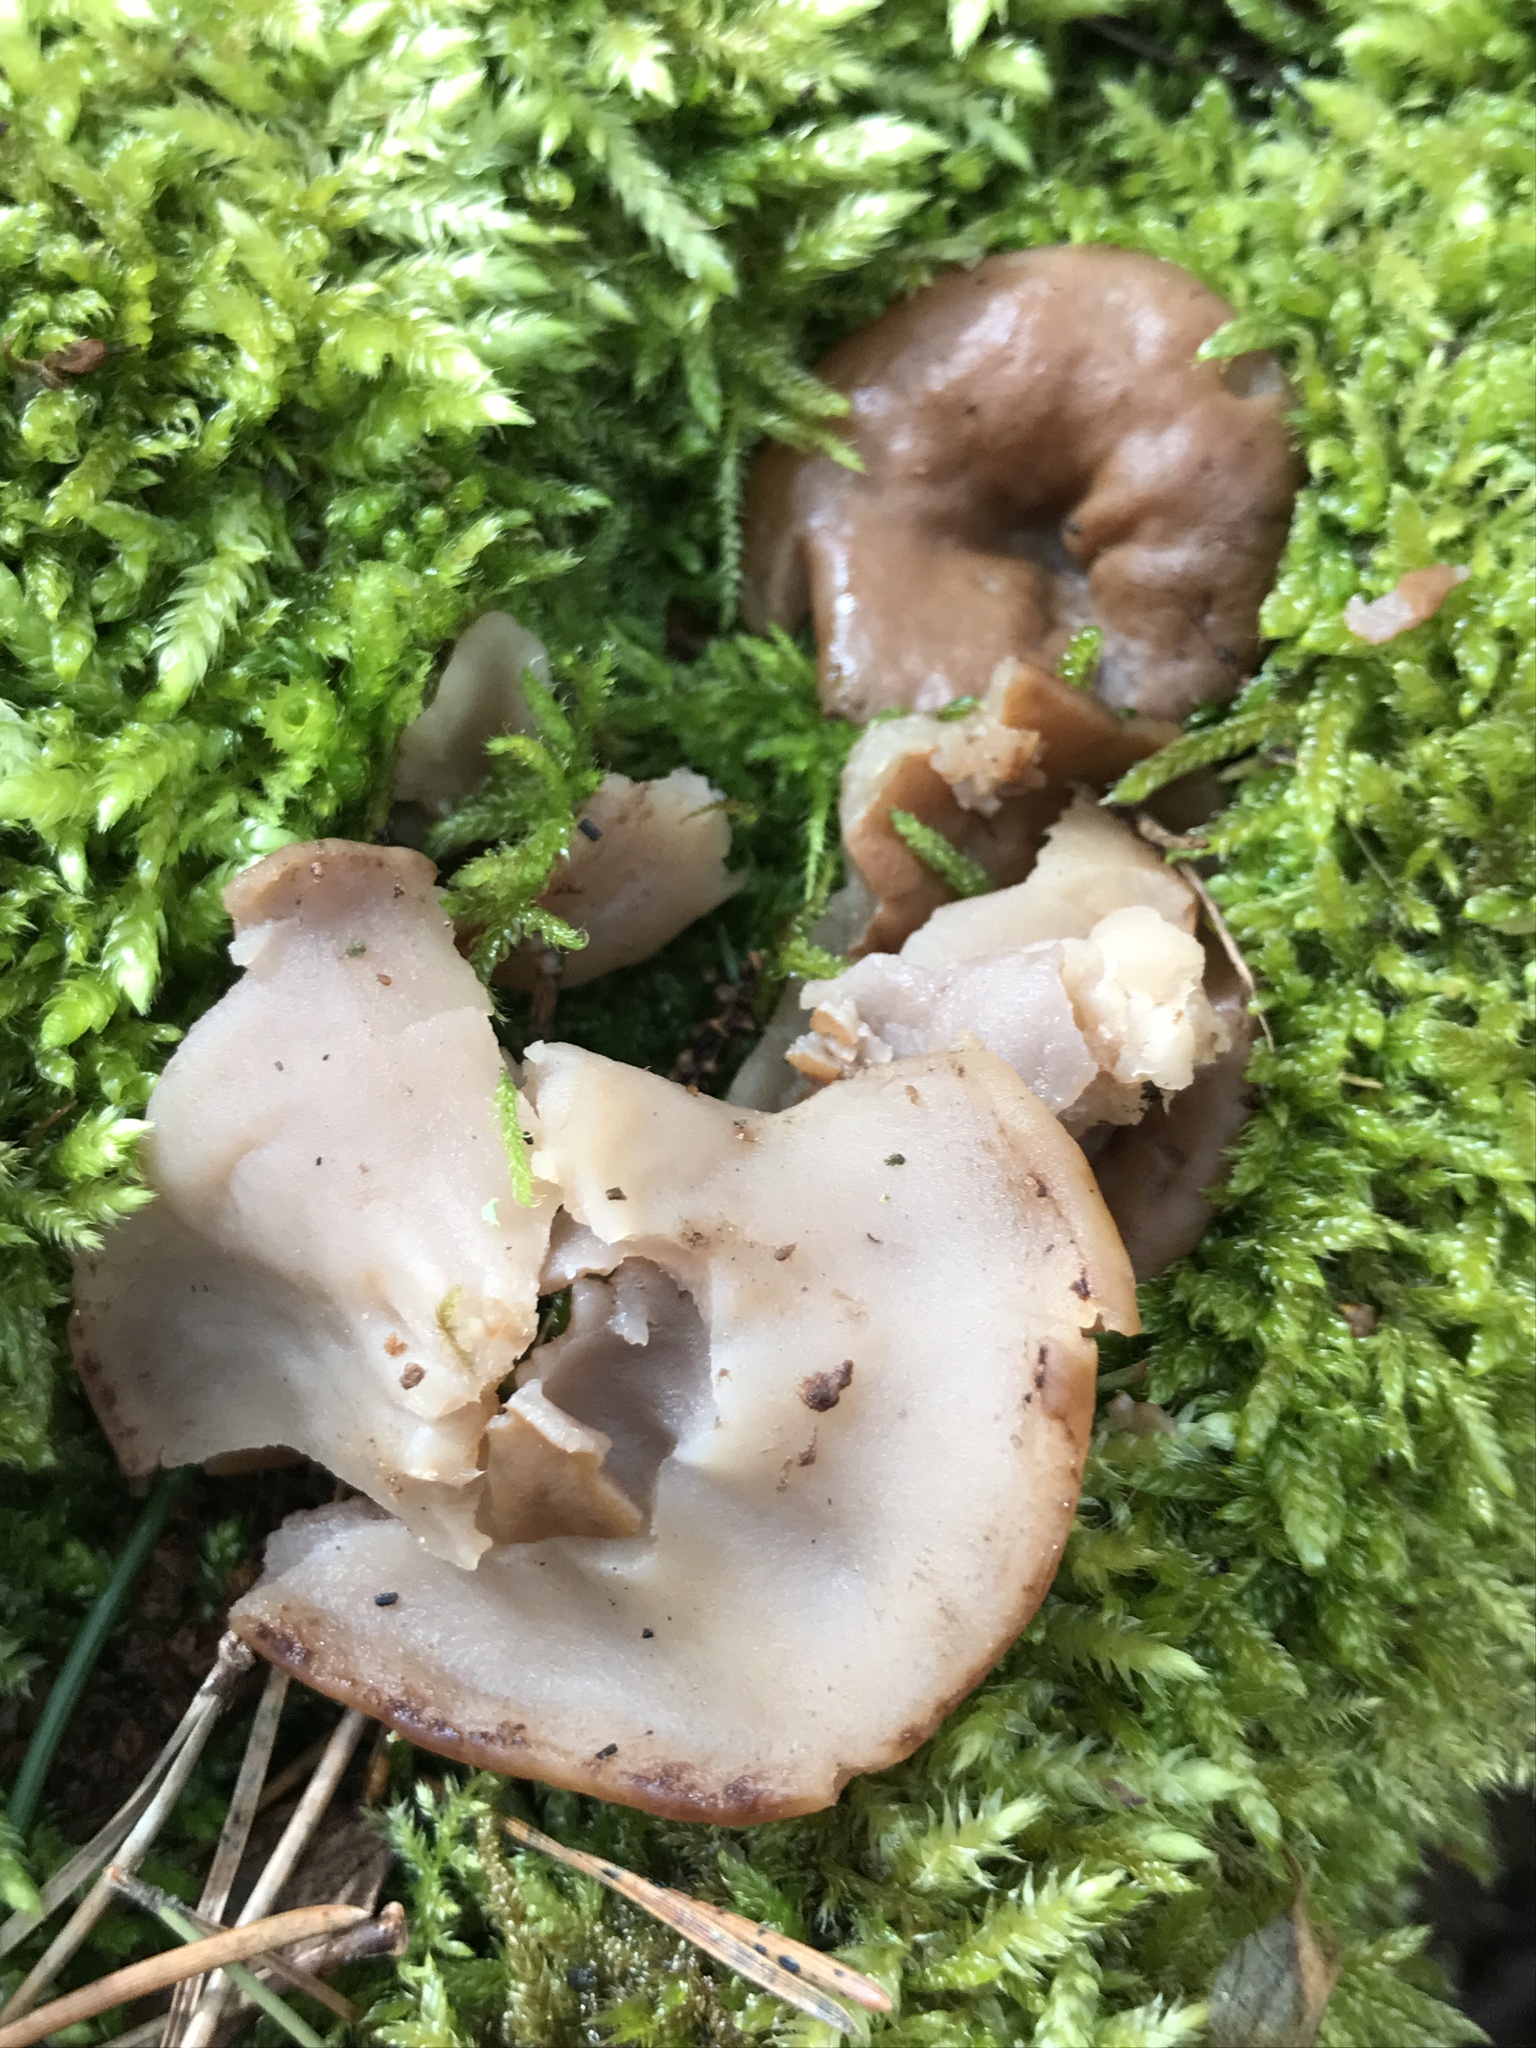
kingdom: Fungi
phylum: Ascomycota
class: Pezizomycetes
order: Pezizales
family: Discinaceae
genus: Discina
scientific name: Discina
